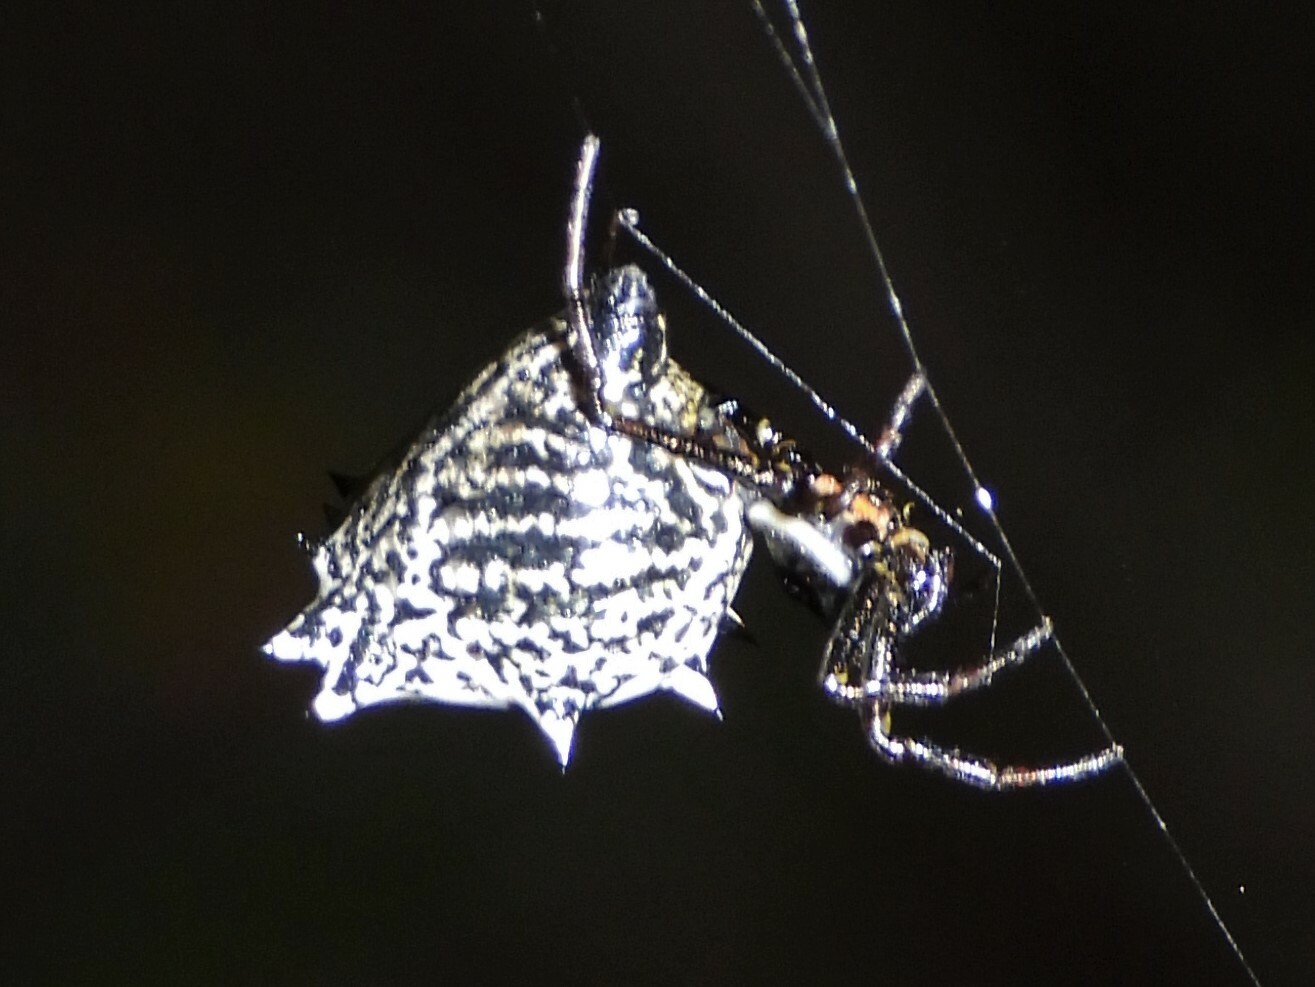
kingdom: Animalia
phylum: Arthropoda
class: Arachnida
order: Araneae
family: Araneidae
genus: Micrathena
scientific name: Micrathena gracilis
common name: Orb weavers
